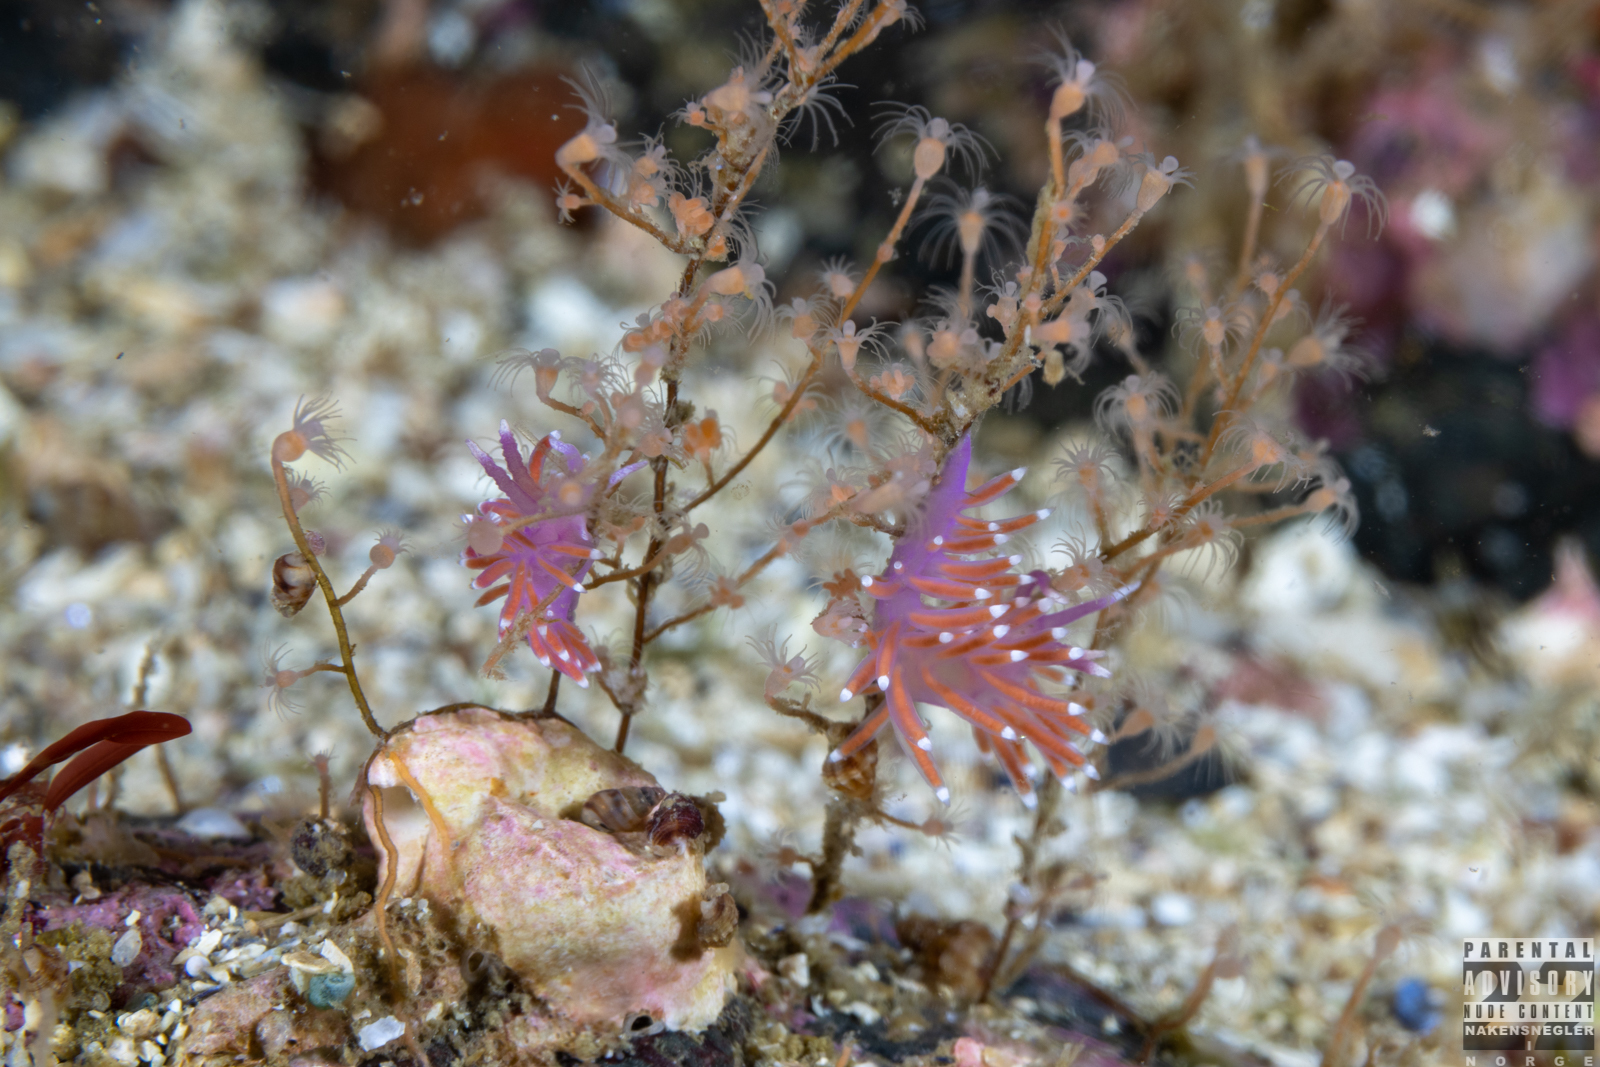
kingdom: Animalia
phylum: Mollusca
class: Gastropoda
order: Nudibranchia
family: Flabellinidae
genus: Edmundsella
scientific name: Edmundsella pedata
